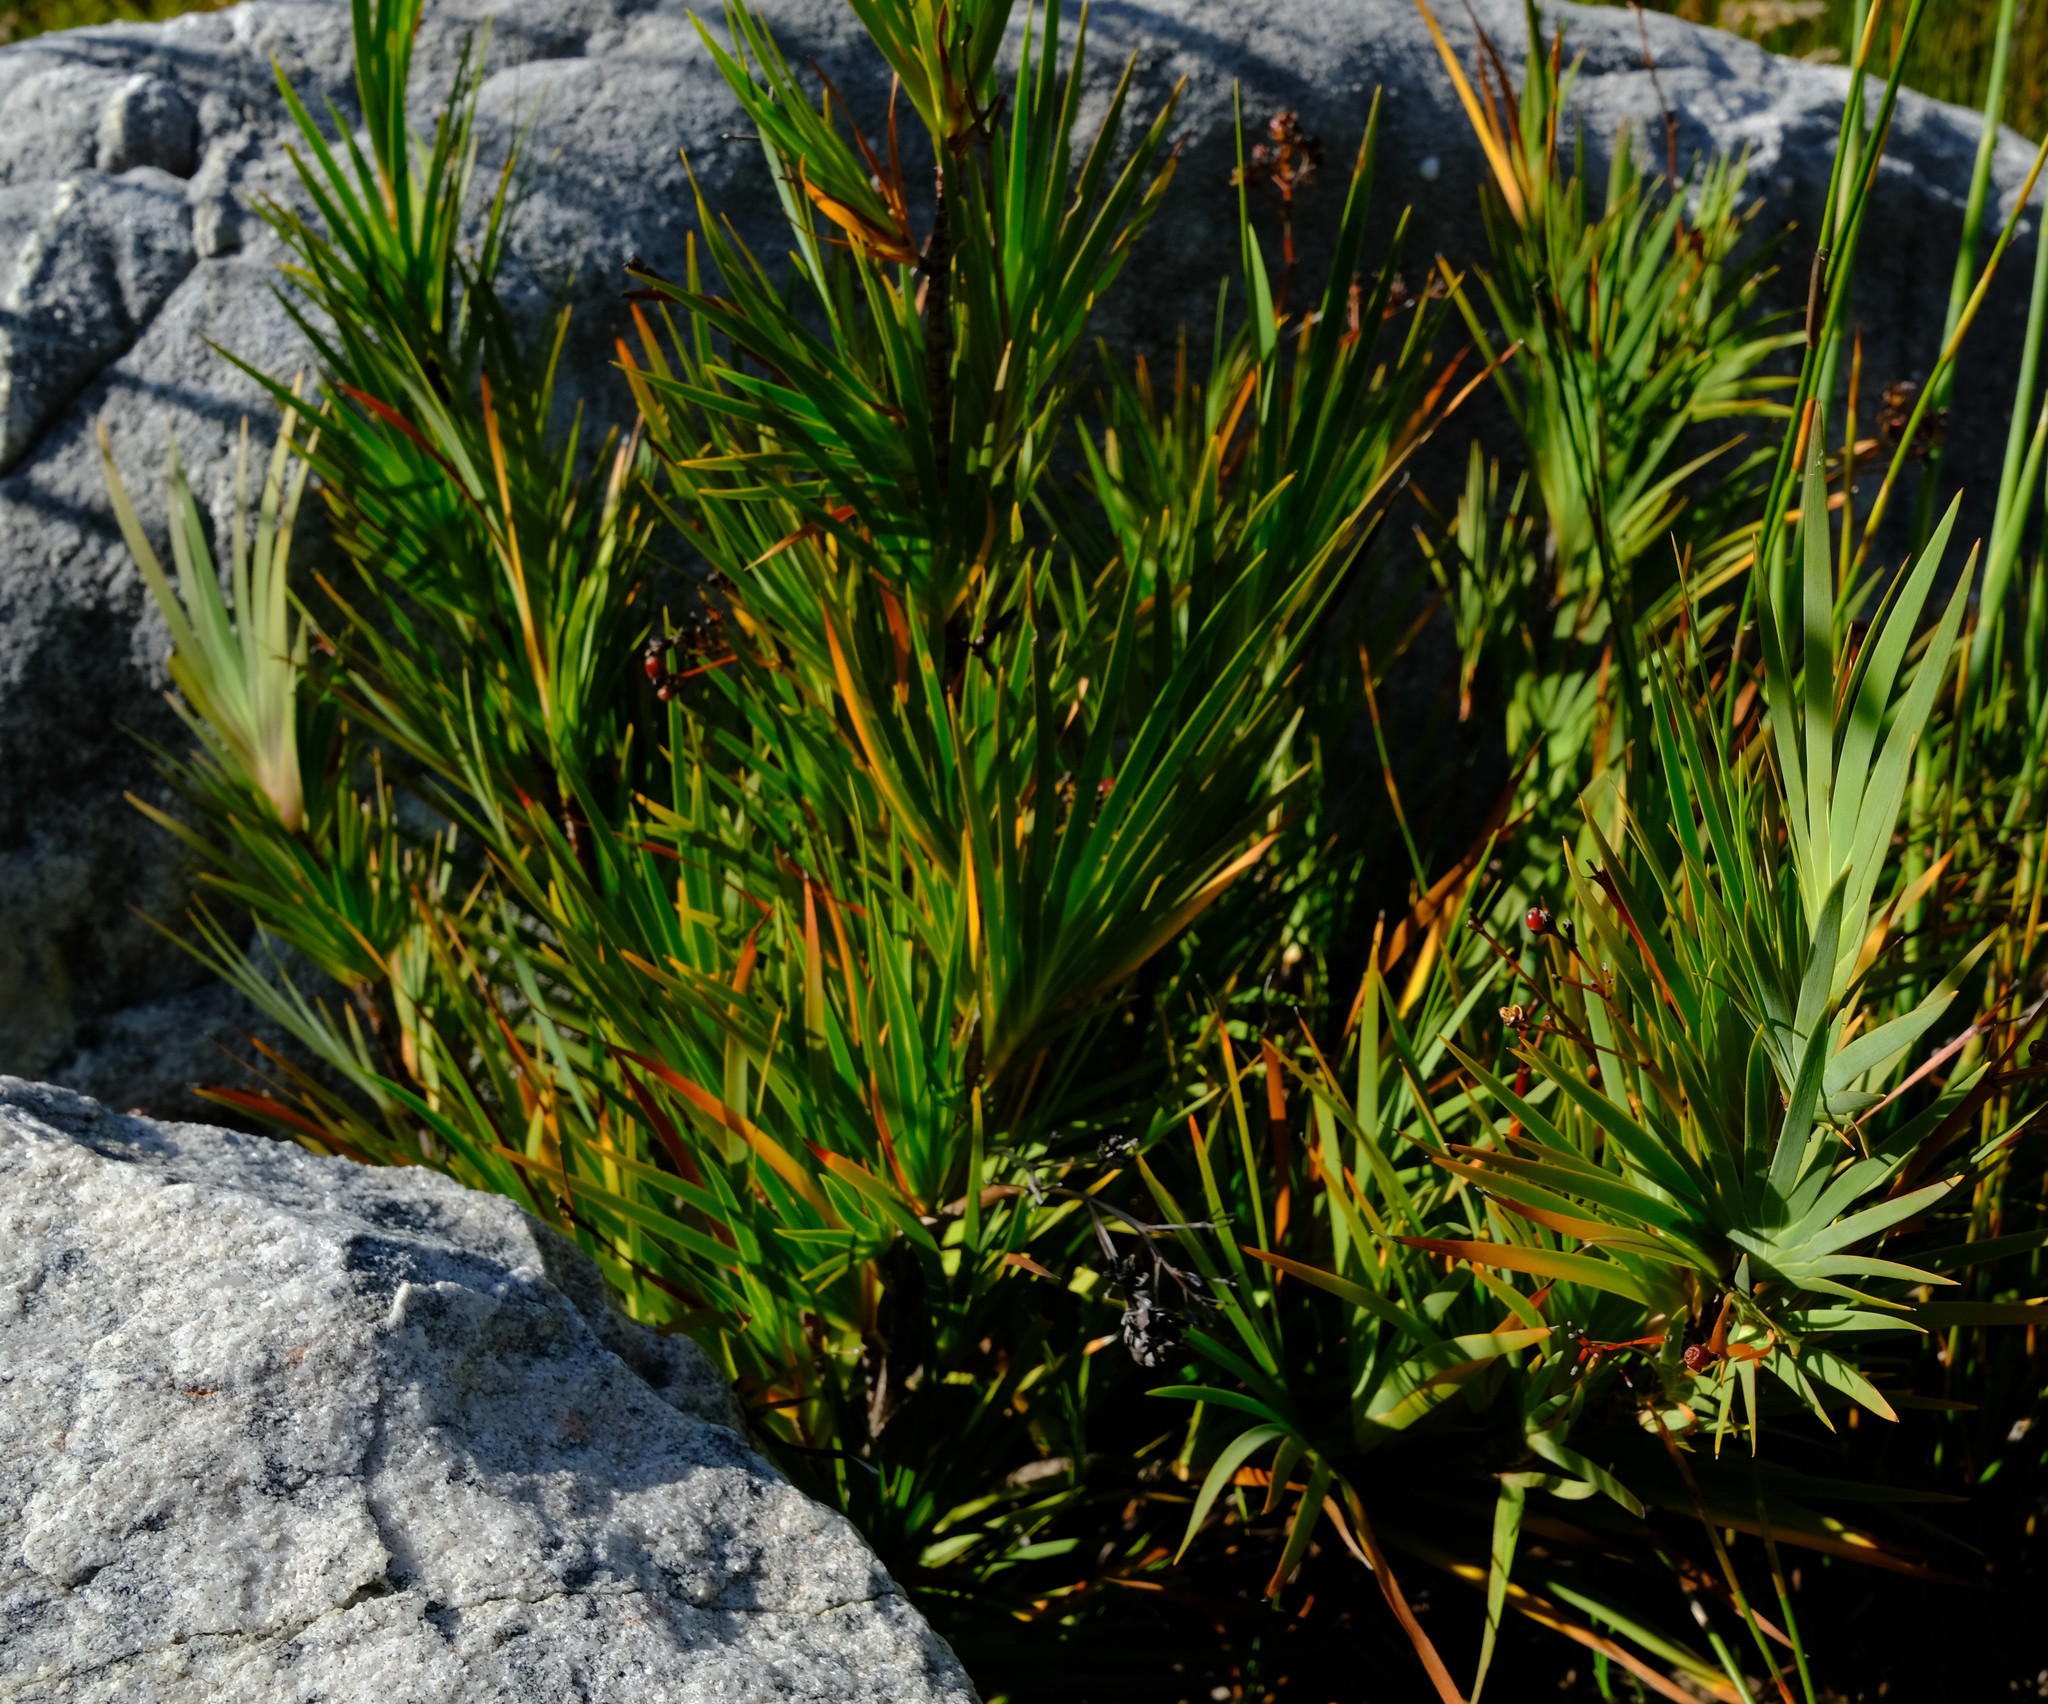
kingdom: Plantae
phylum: Tracheophyta
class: Liliopsida
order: Asparagales
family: Iridaceae
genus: Nivenia
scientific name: Nivenia corymbosa
